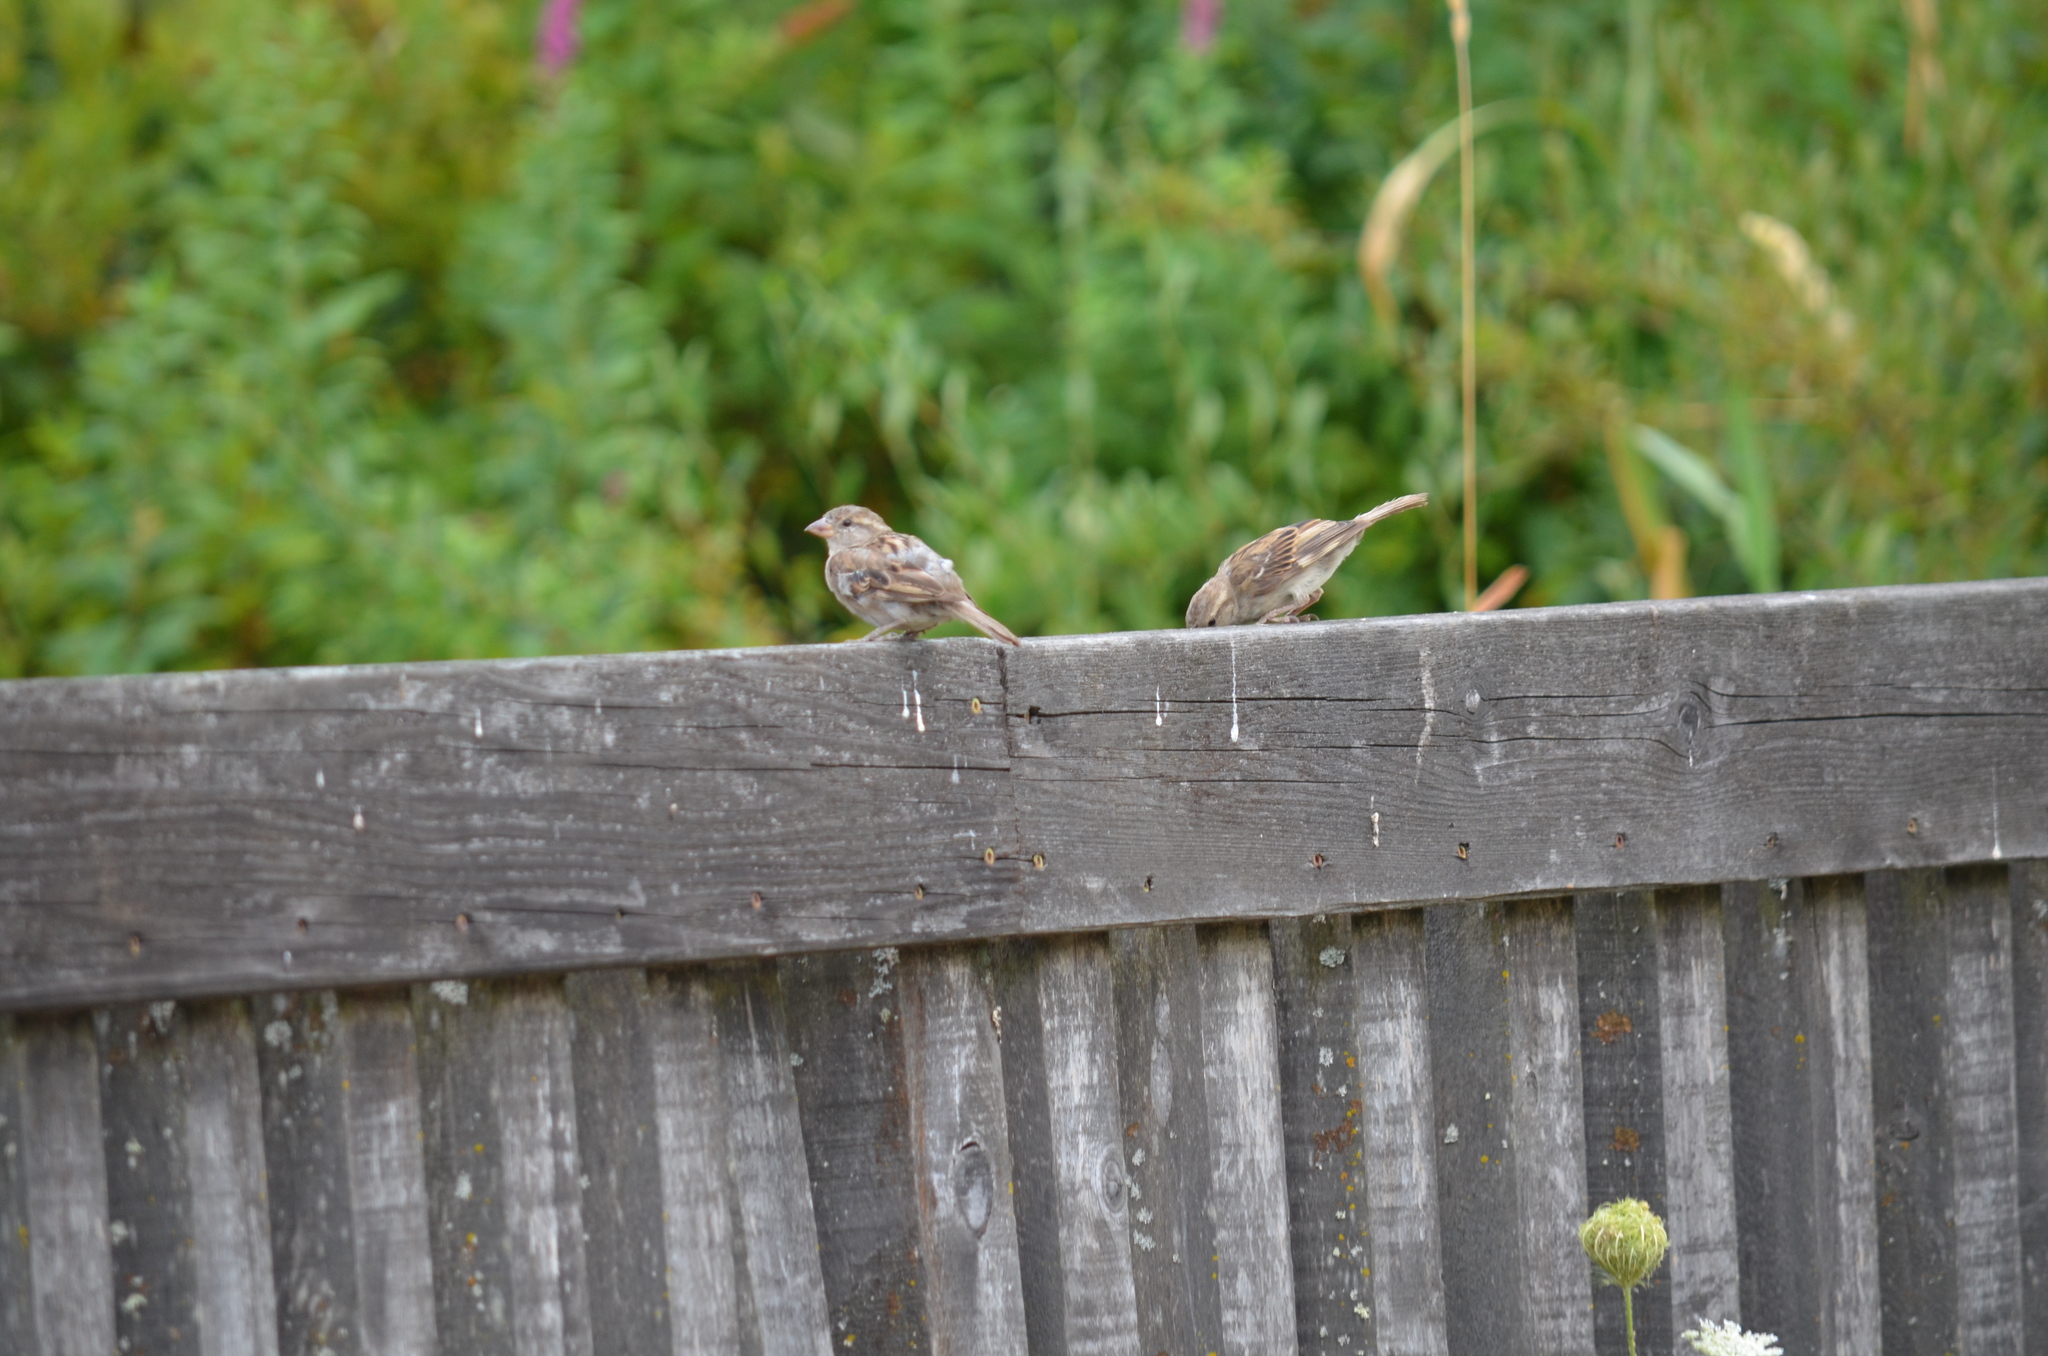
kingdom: Animalia
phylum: Chordata
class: Aves
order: Passeriformes
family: Passeridae
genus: Passer
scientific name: Passer domesticus
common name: House sparrow
